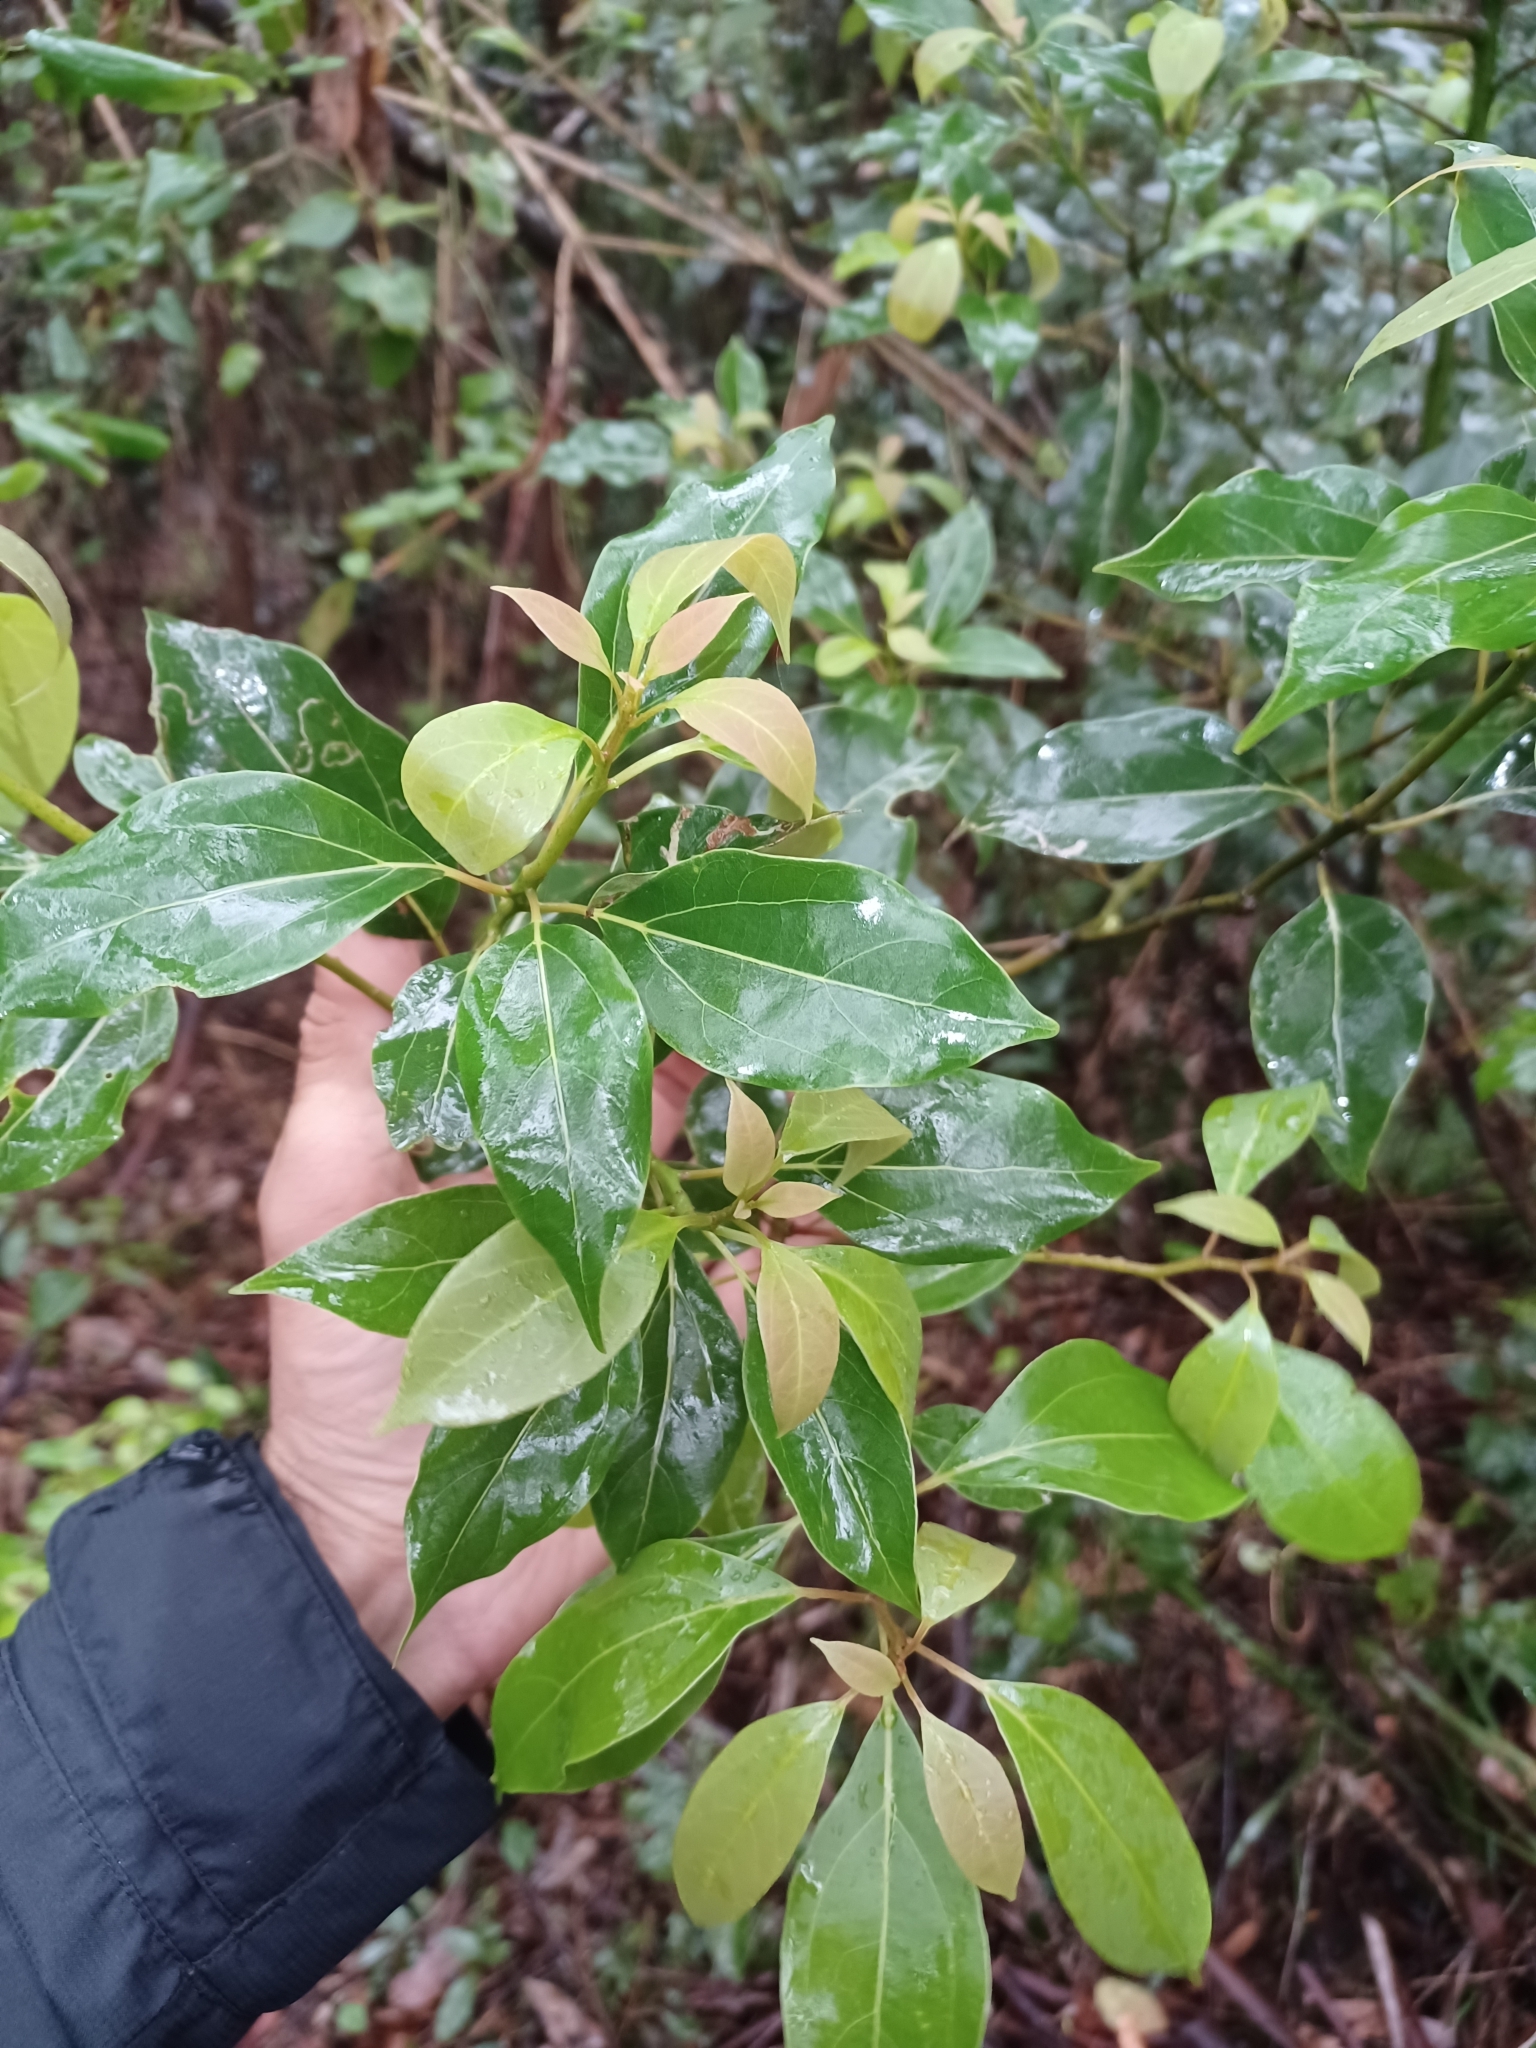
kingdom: Plantae
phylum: Tracheophyta
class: Magnoliopsida
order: Laurales
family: Lauraceae
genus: Cinnamomum
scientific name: Cinnamomum camphora
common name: Camphortree
